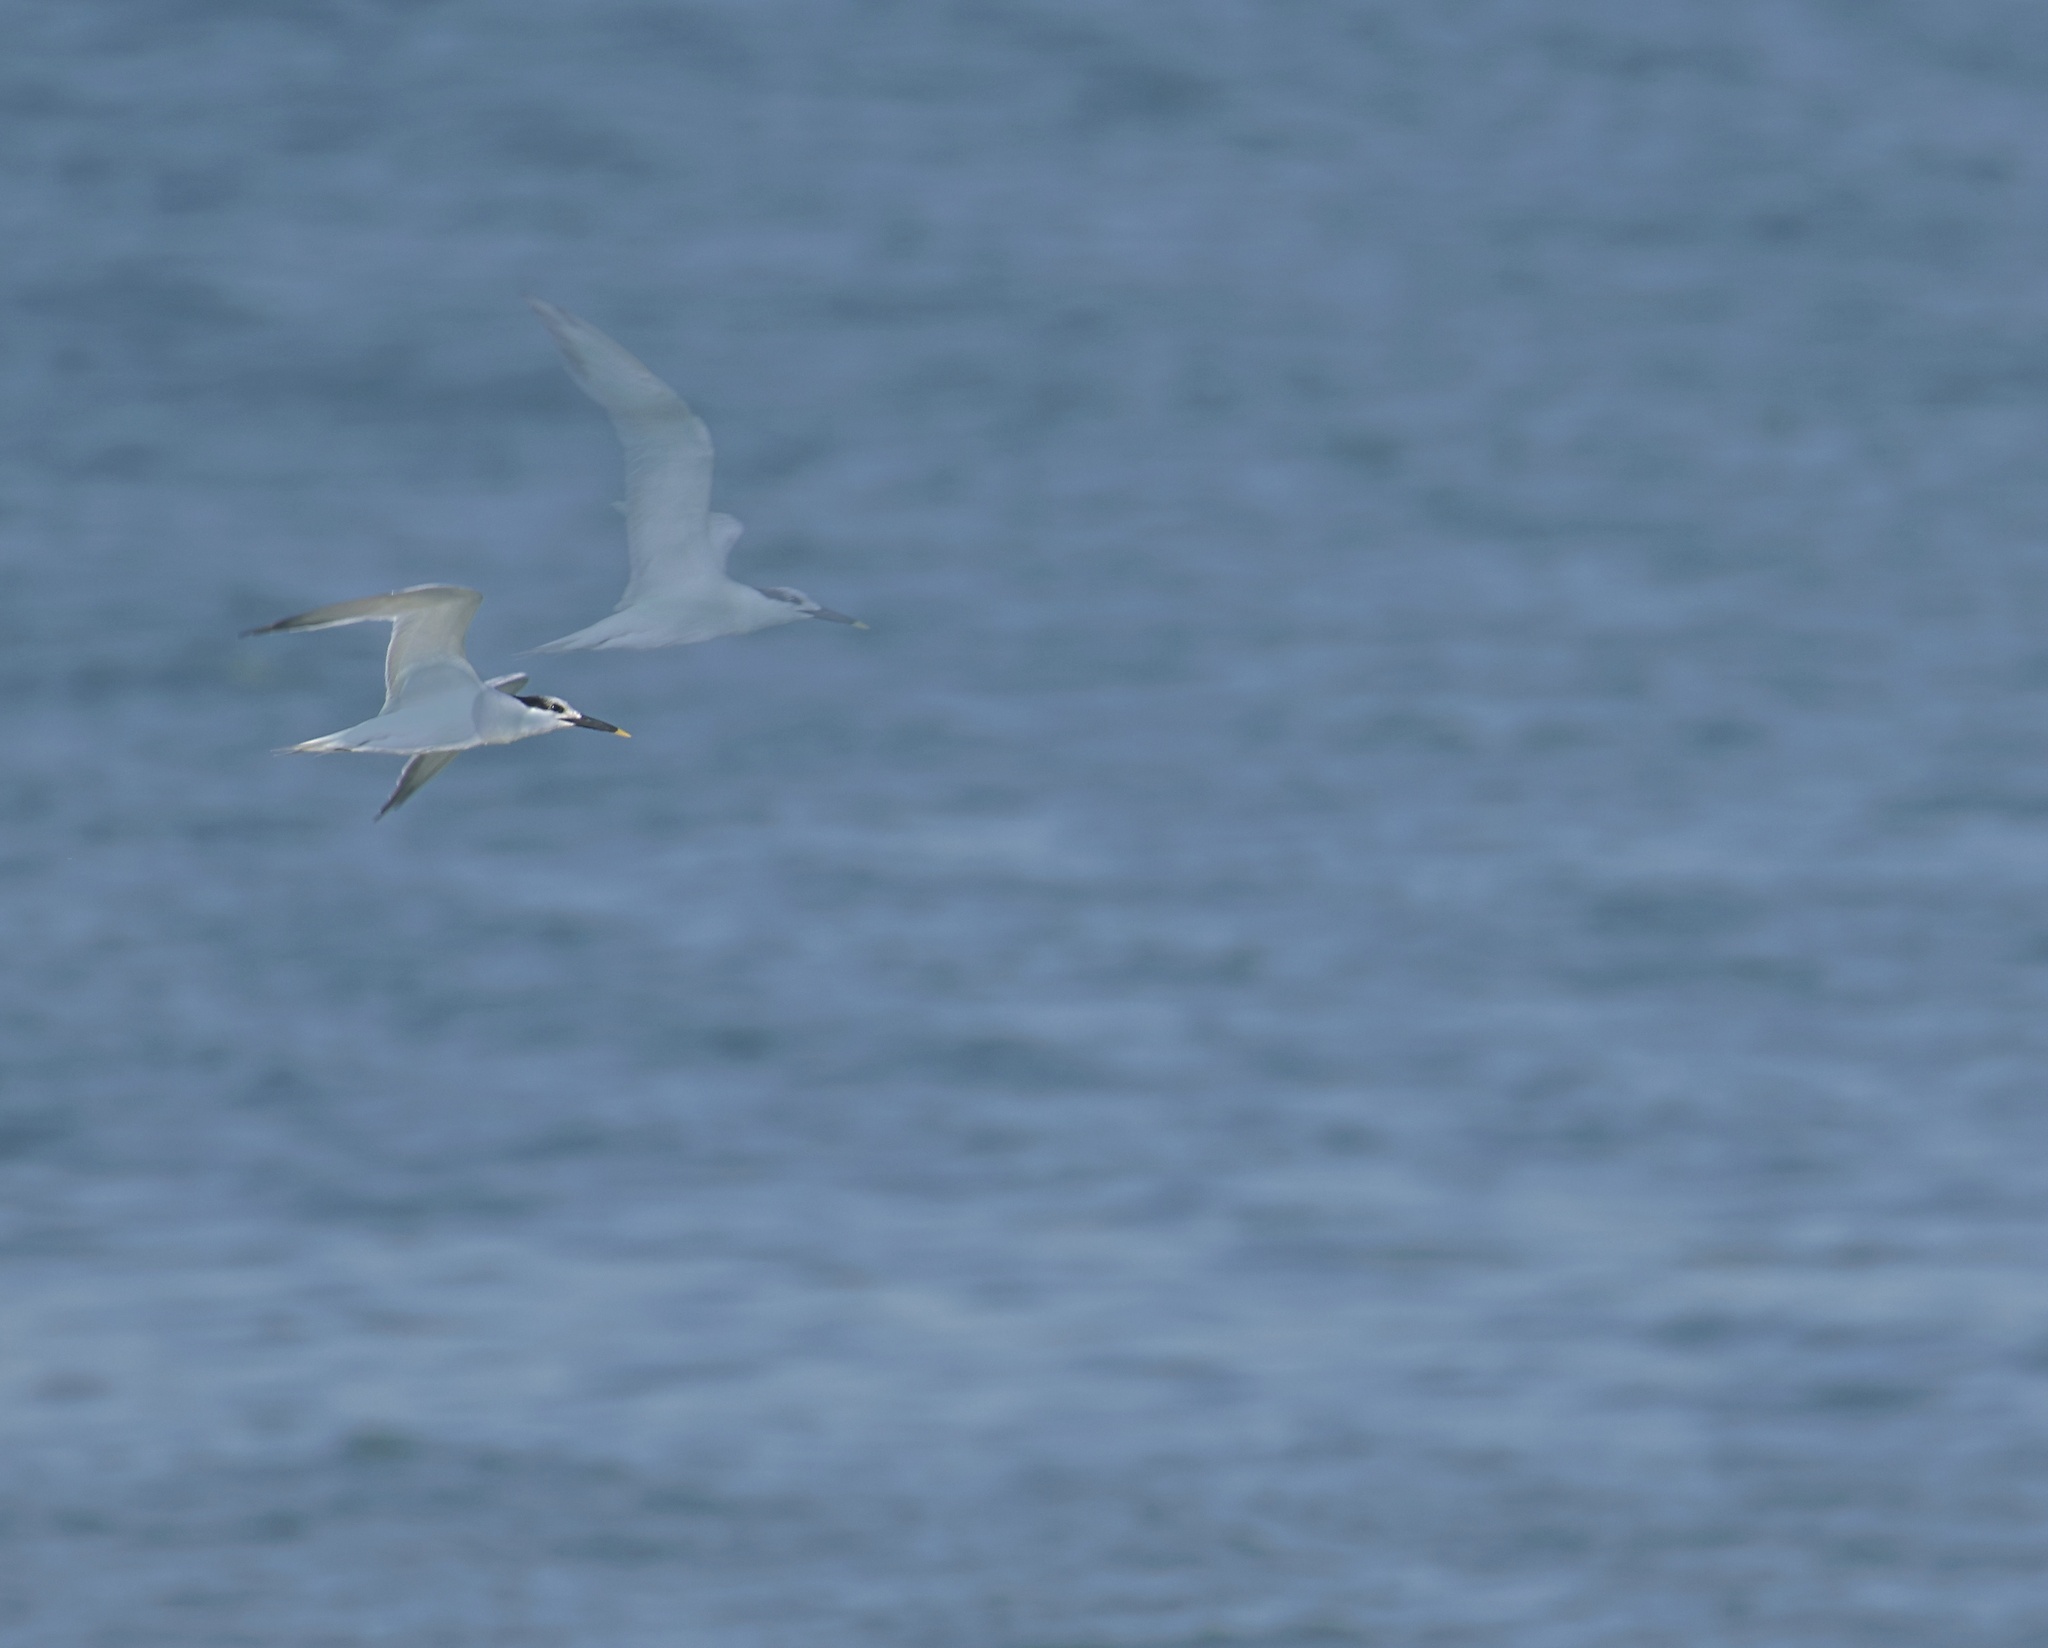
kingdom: Animalia
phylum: Chordata
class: Aves
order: Charadriiformes
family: Laridae
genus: Thalasseus
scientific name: Thalasseus sandvicensis
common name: Sandwich tern
